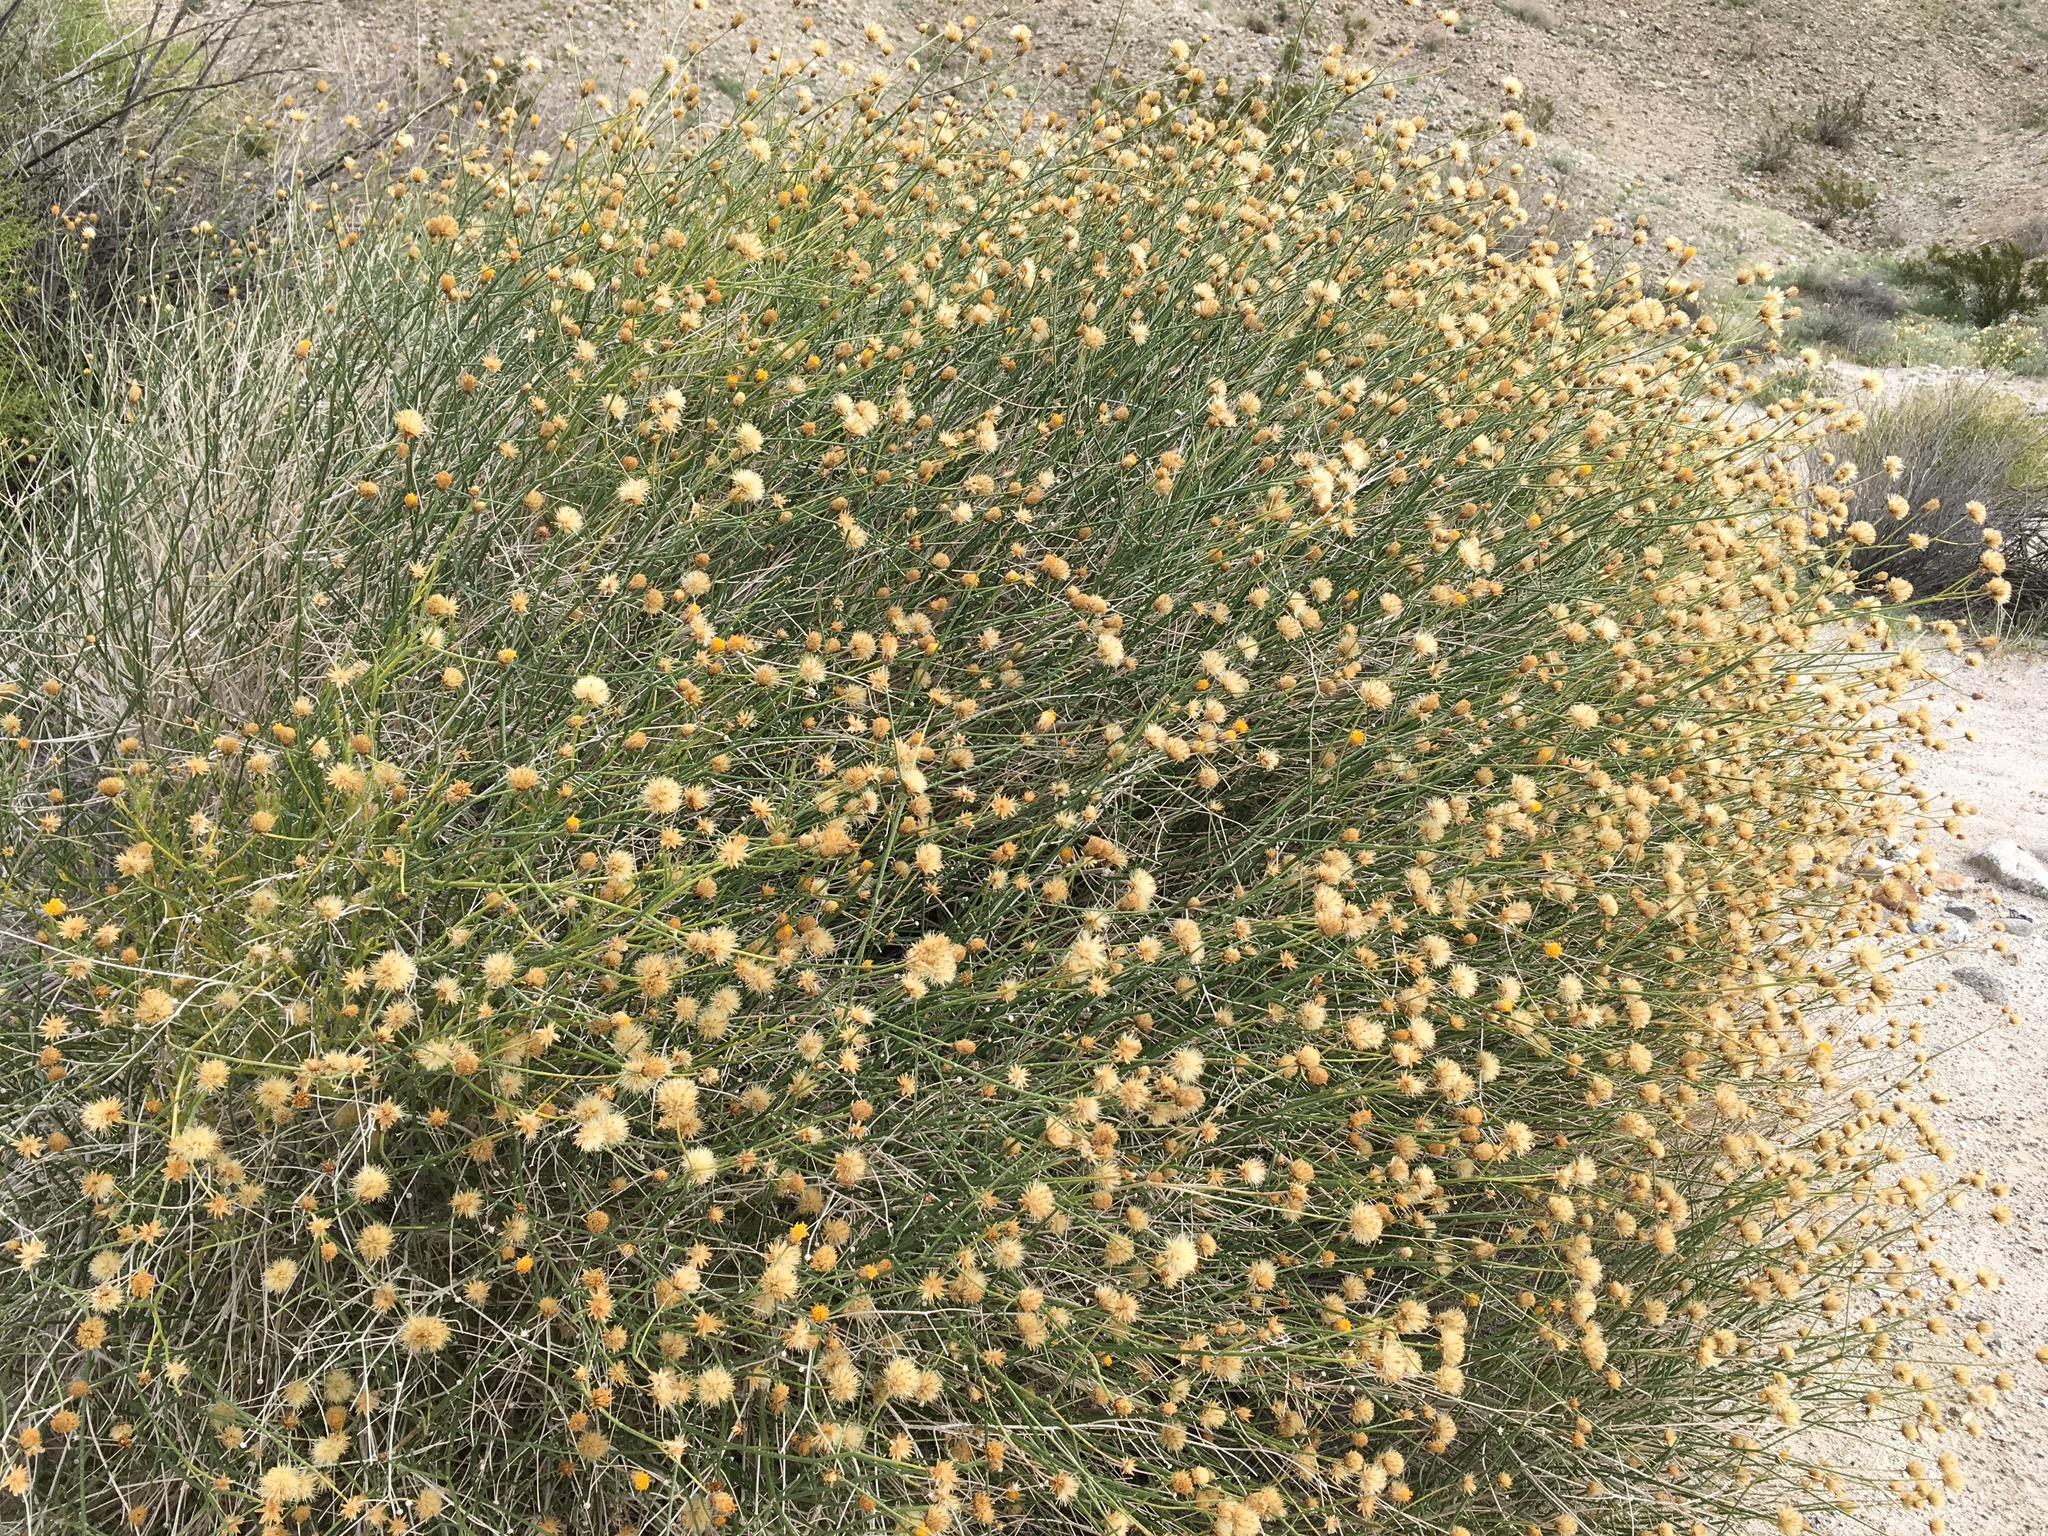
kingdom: Plantae
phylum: Tracheophyta
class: Magnoliopsida
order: Asterales
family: Asteraceae
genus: Bebbia
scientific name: Bebbia juncea
